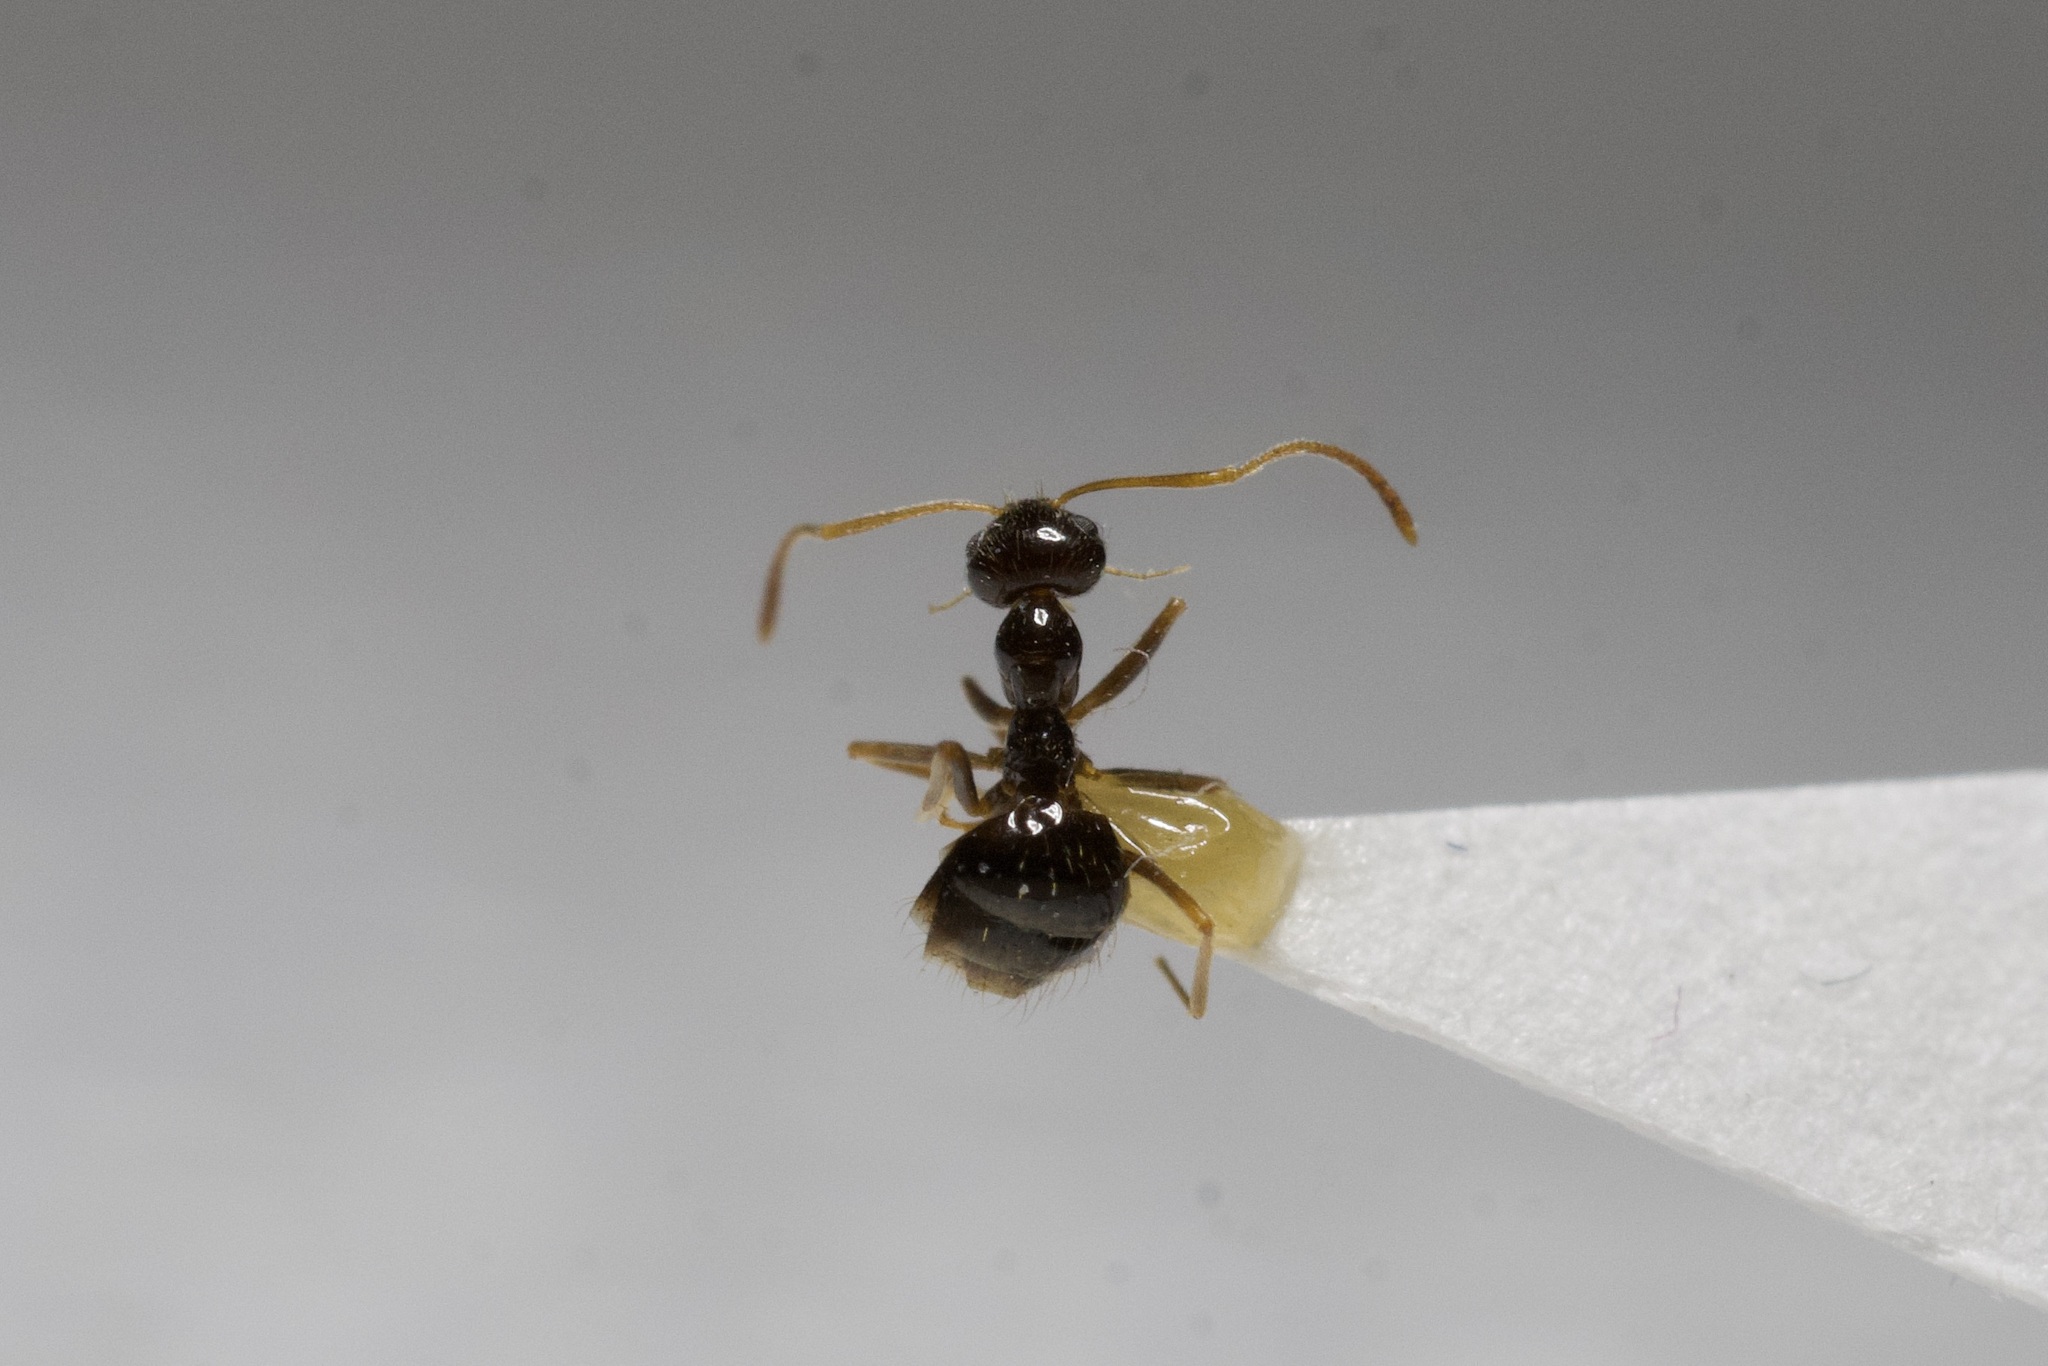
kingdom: Animalia
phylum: Arthropoda
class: Insecta
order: Hymenoptera
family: Formicidae
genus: Prenolepis
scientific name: Prenolepis imparis
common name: Small honey ant
